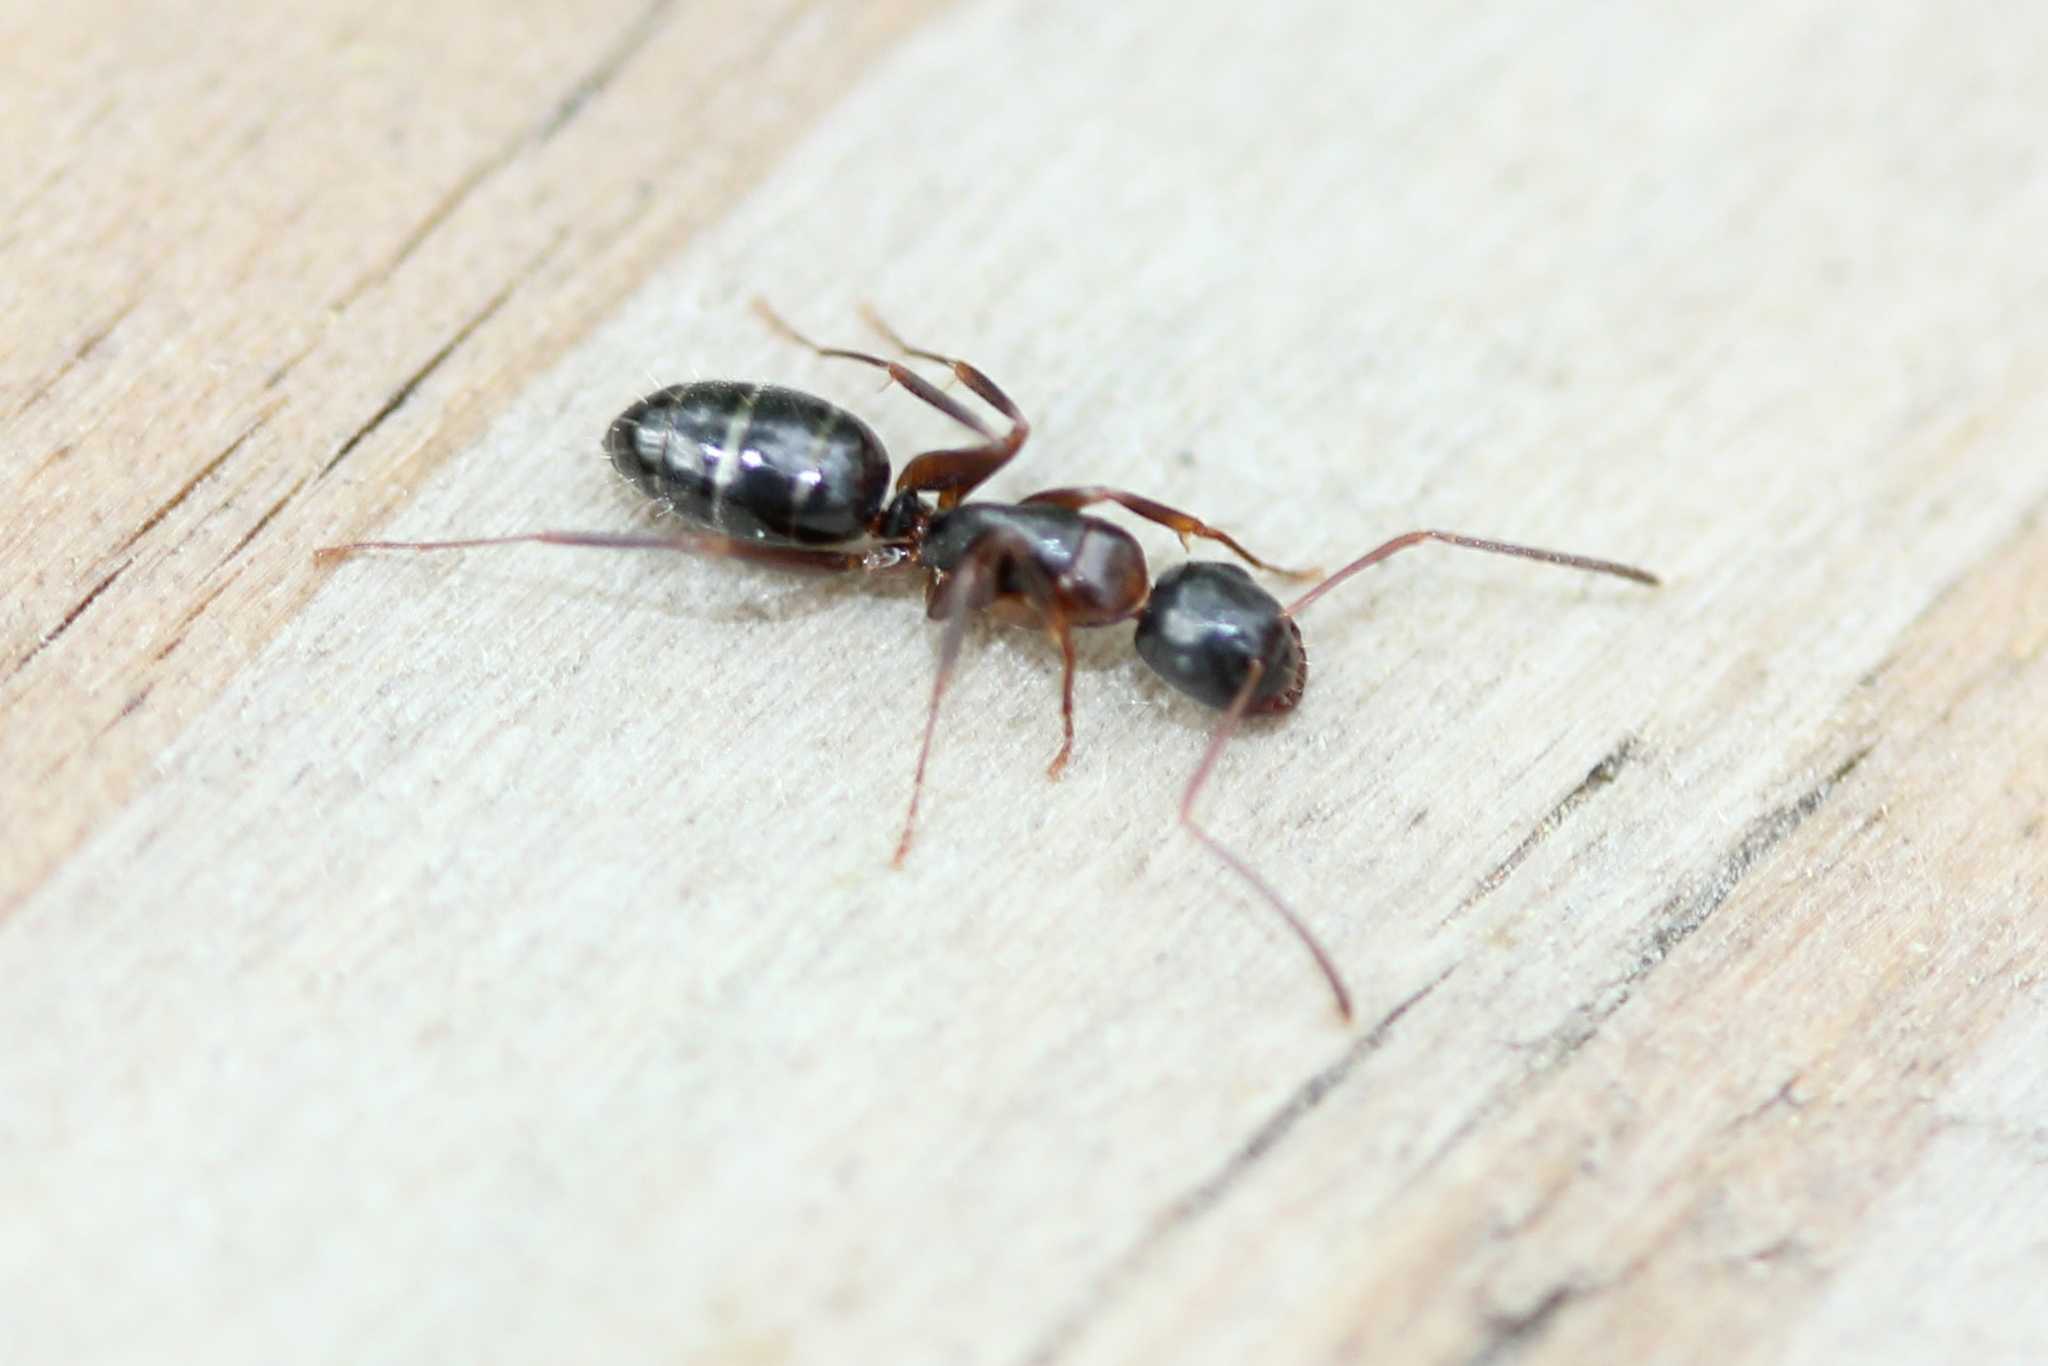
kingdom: Animalia
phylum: Arthropoda
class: Insecta
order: Hymenoptera
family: Formicidae
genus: Camponotus
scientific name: Camponotus nearcticus
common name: Smaller carpenter ant
